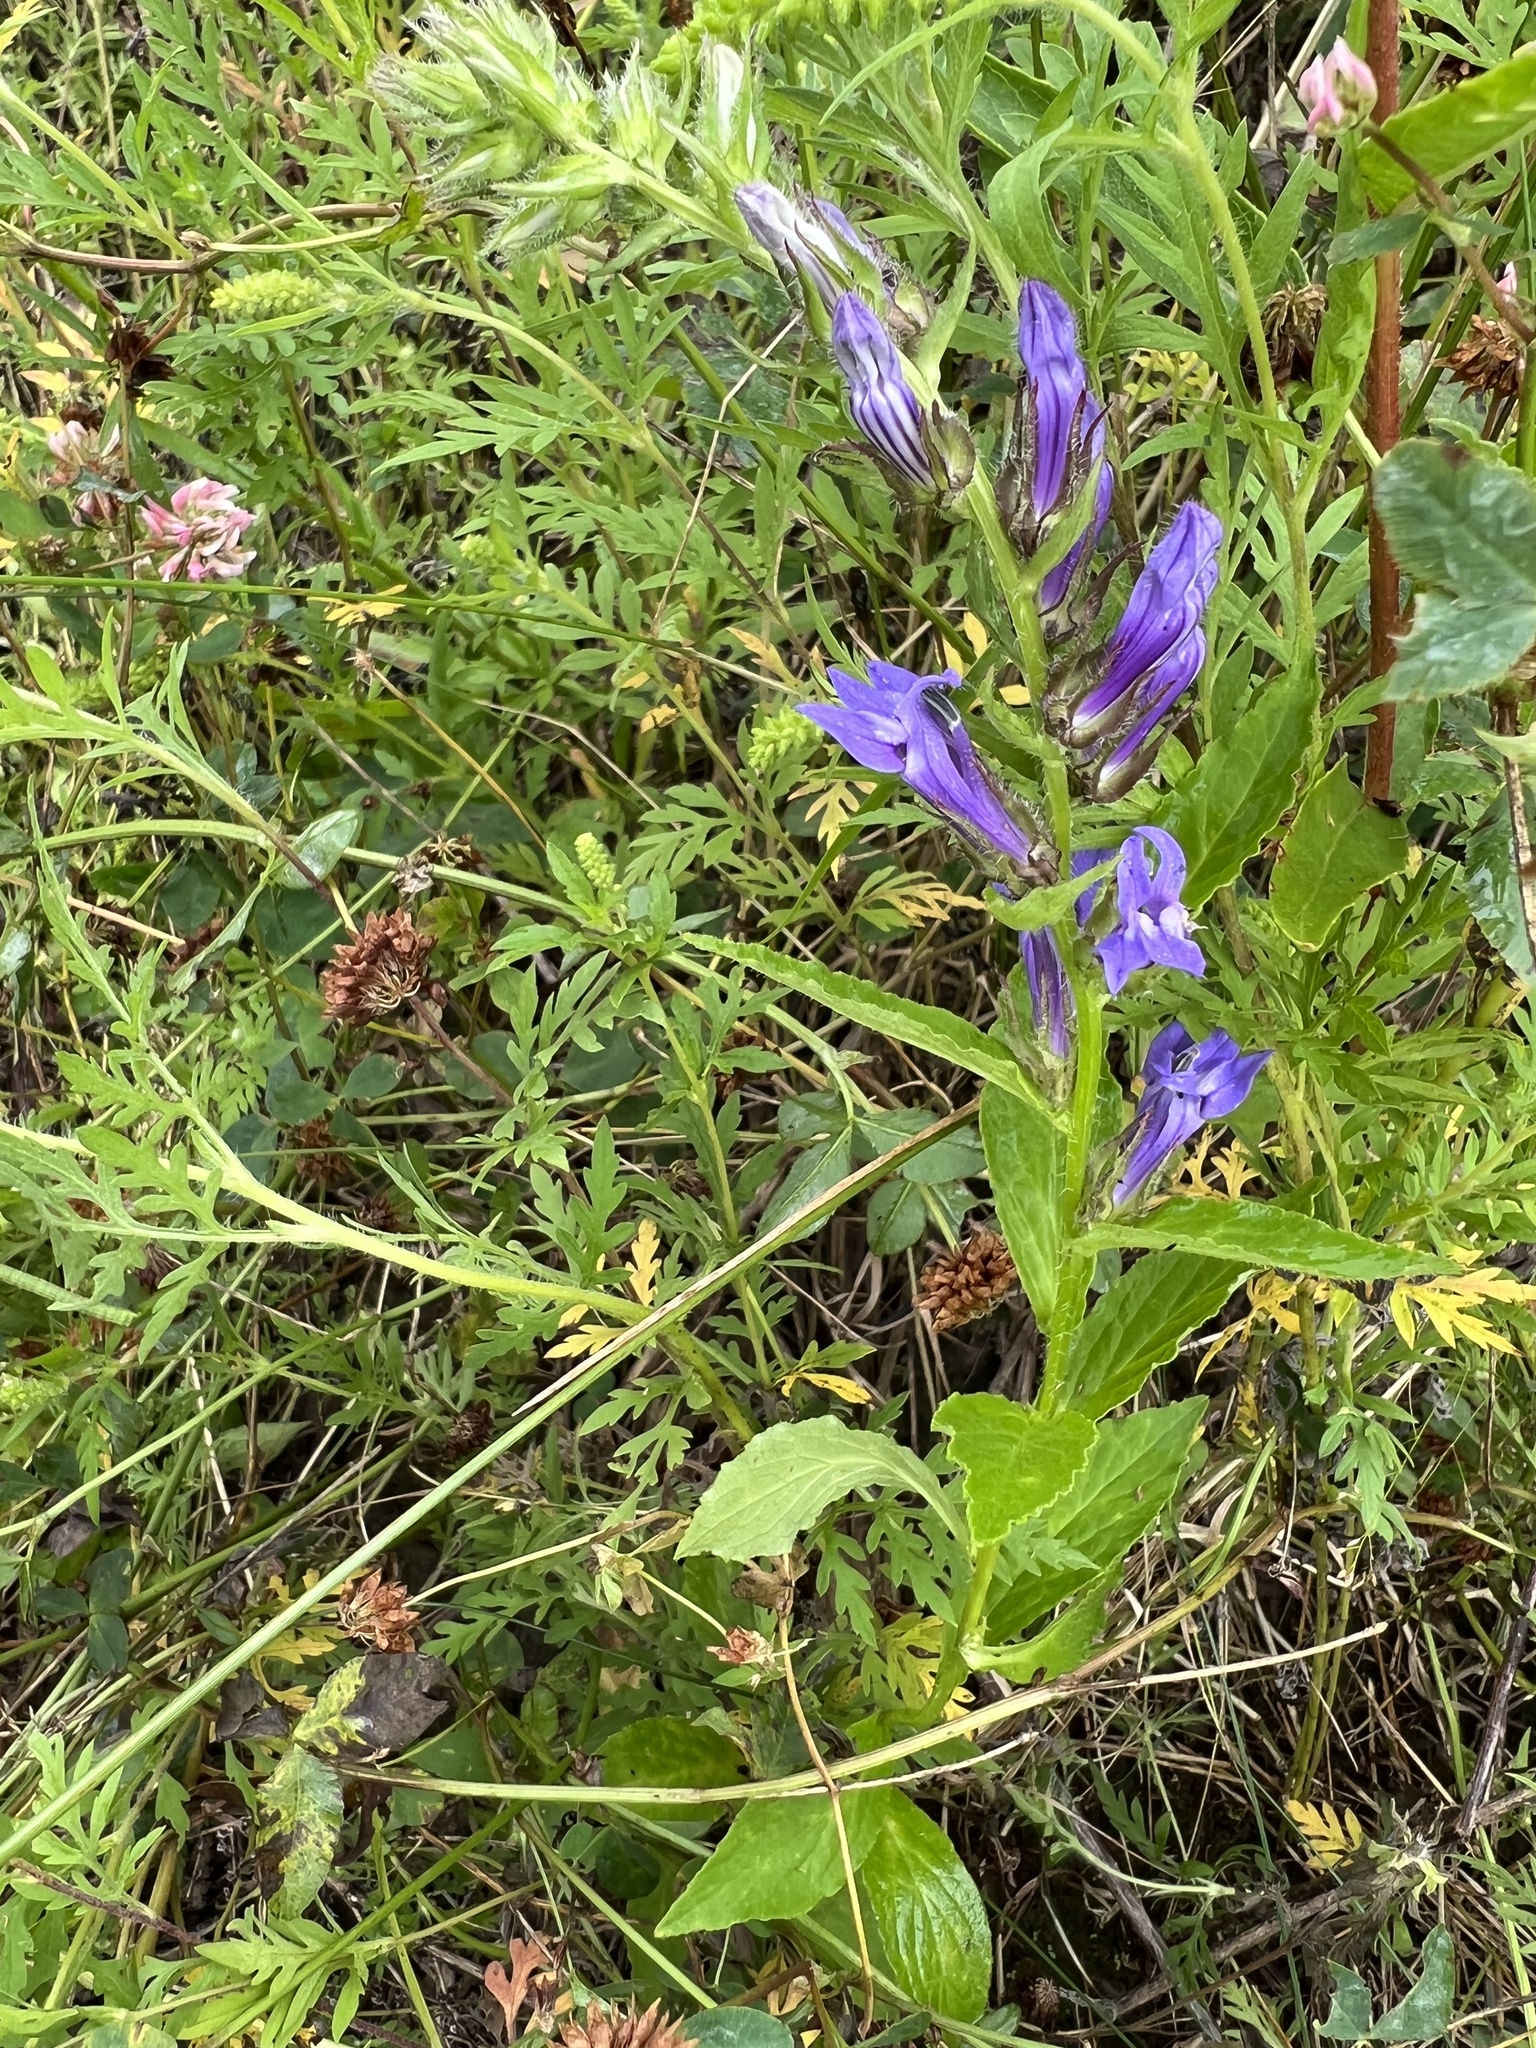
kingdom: Plantae
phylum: Tracheophyta
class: Magnoliopsida
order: Asterales
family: Campanulaceae
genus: Lobelia
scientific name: Lobelia siphilitica
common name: Great lobelia
